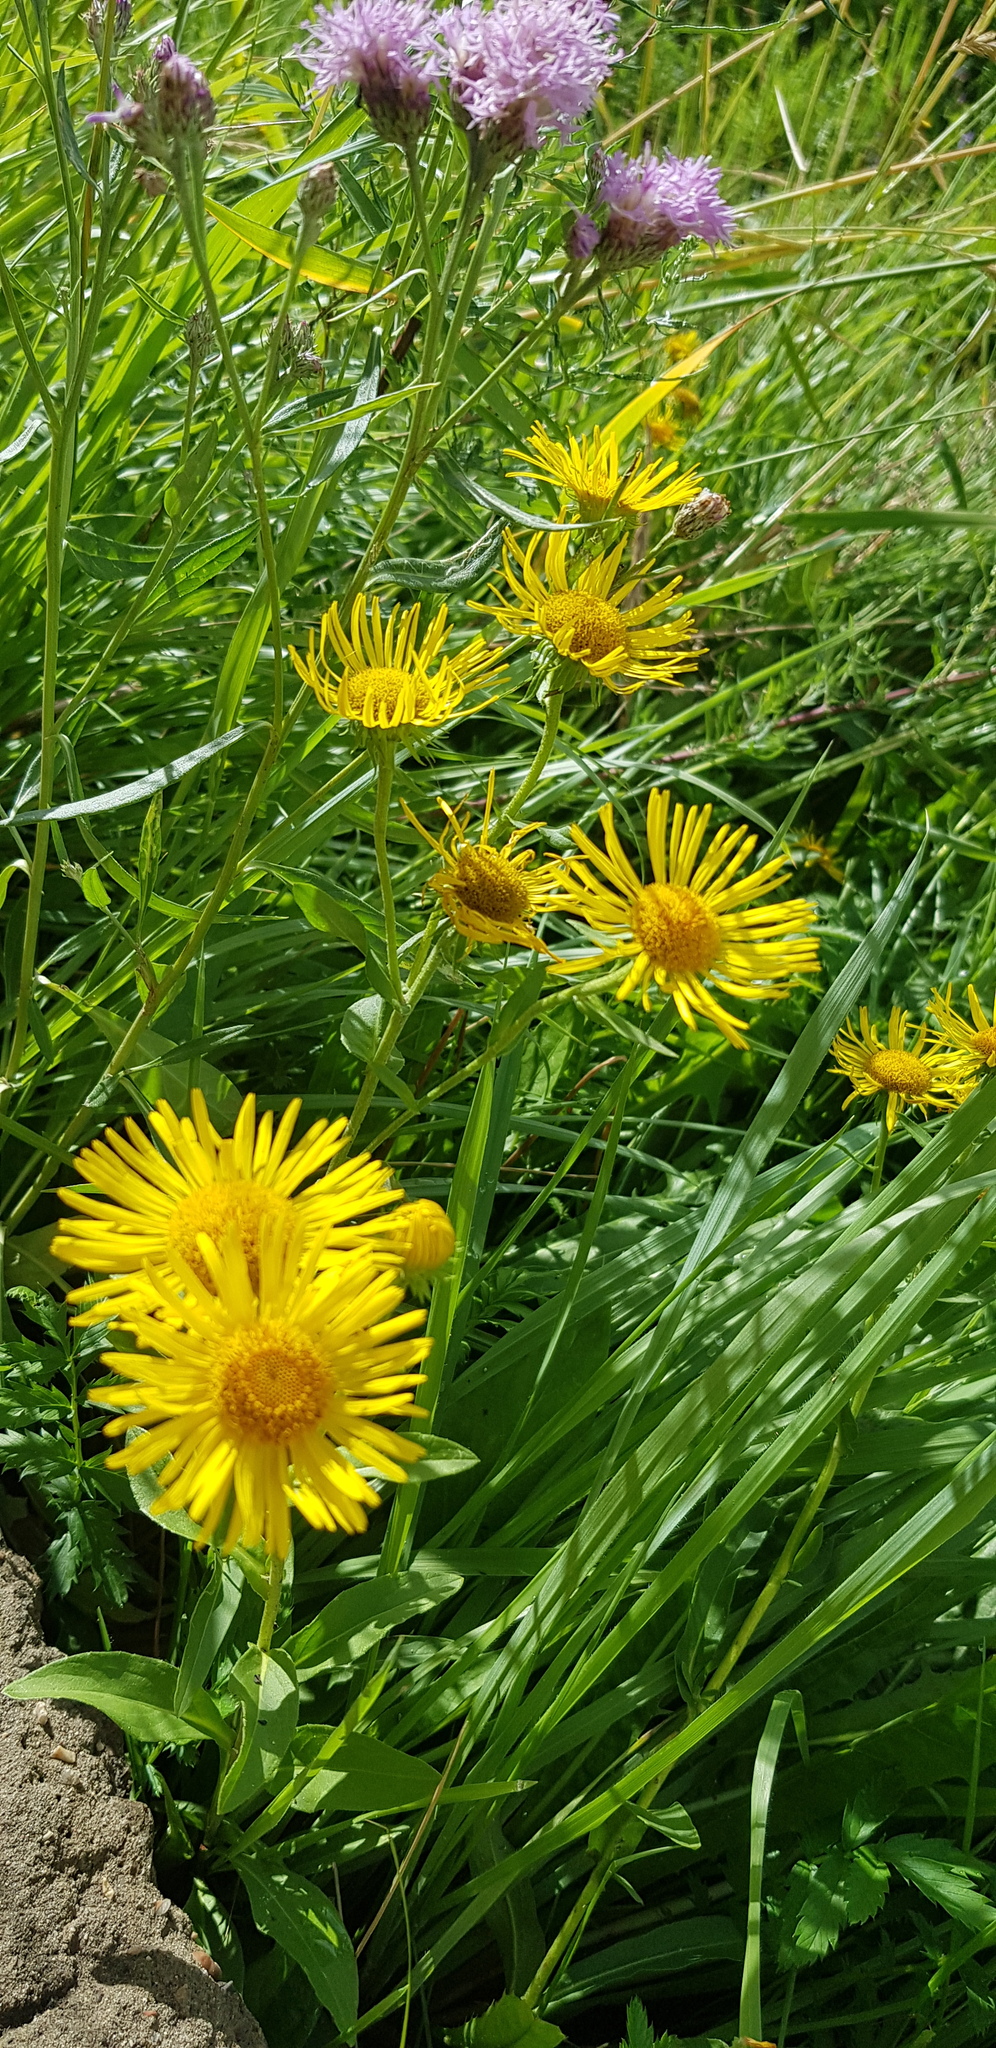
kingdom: Plantae
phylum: Tracheophyta
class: Magnoliopsida
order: Asterales
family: Asteraceae
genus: Pentanema
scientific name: Pentanema britannicum
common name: British elecampane
